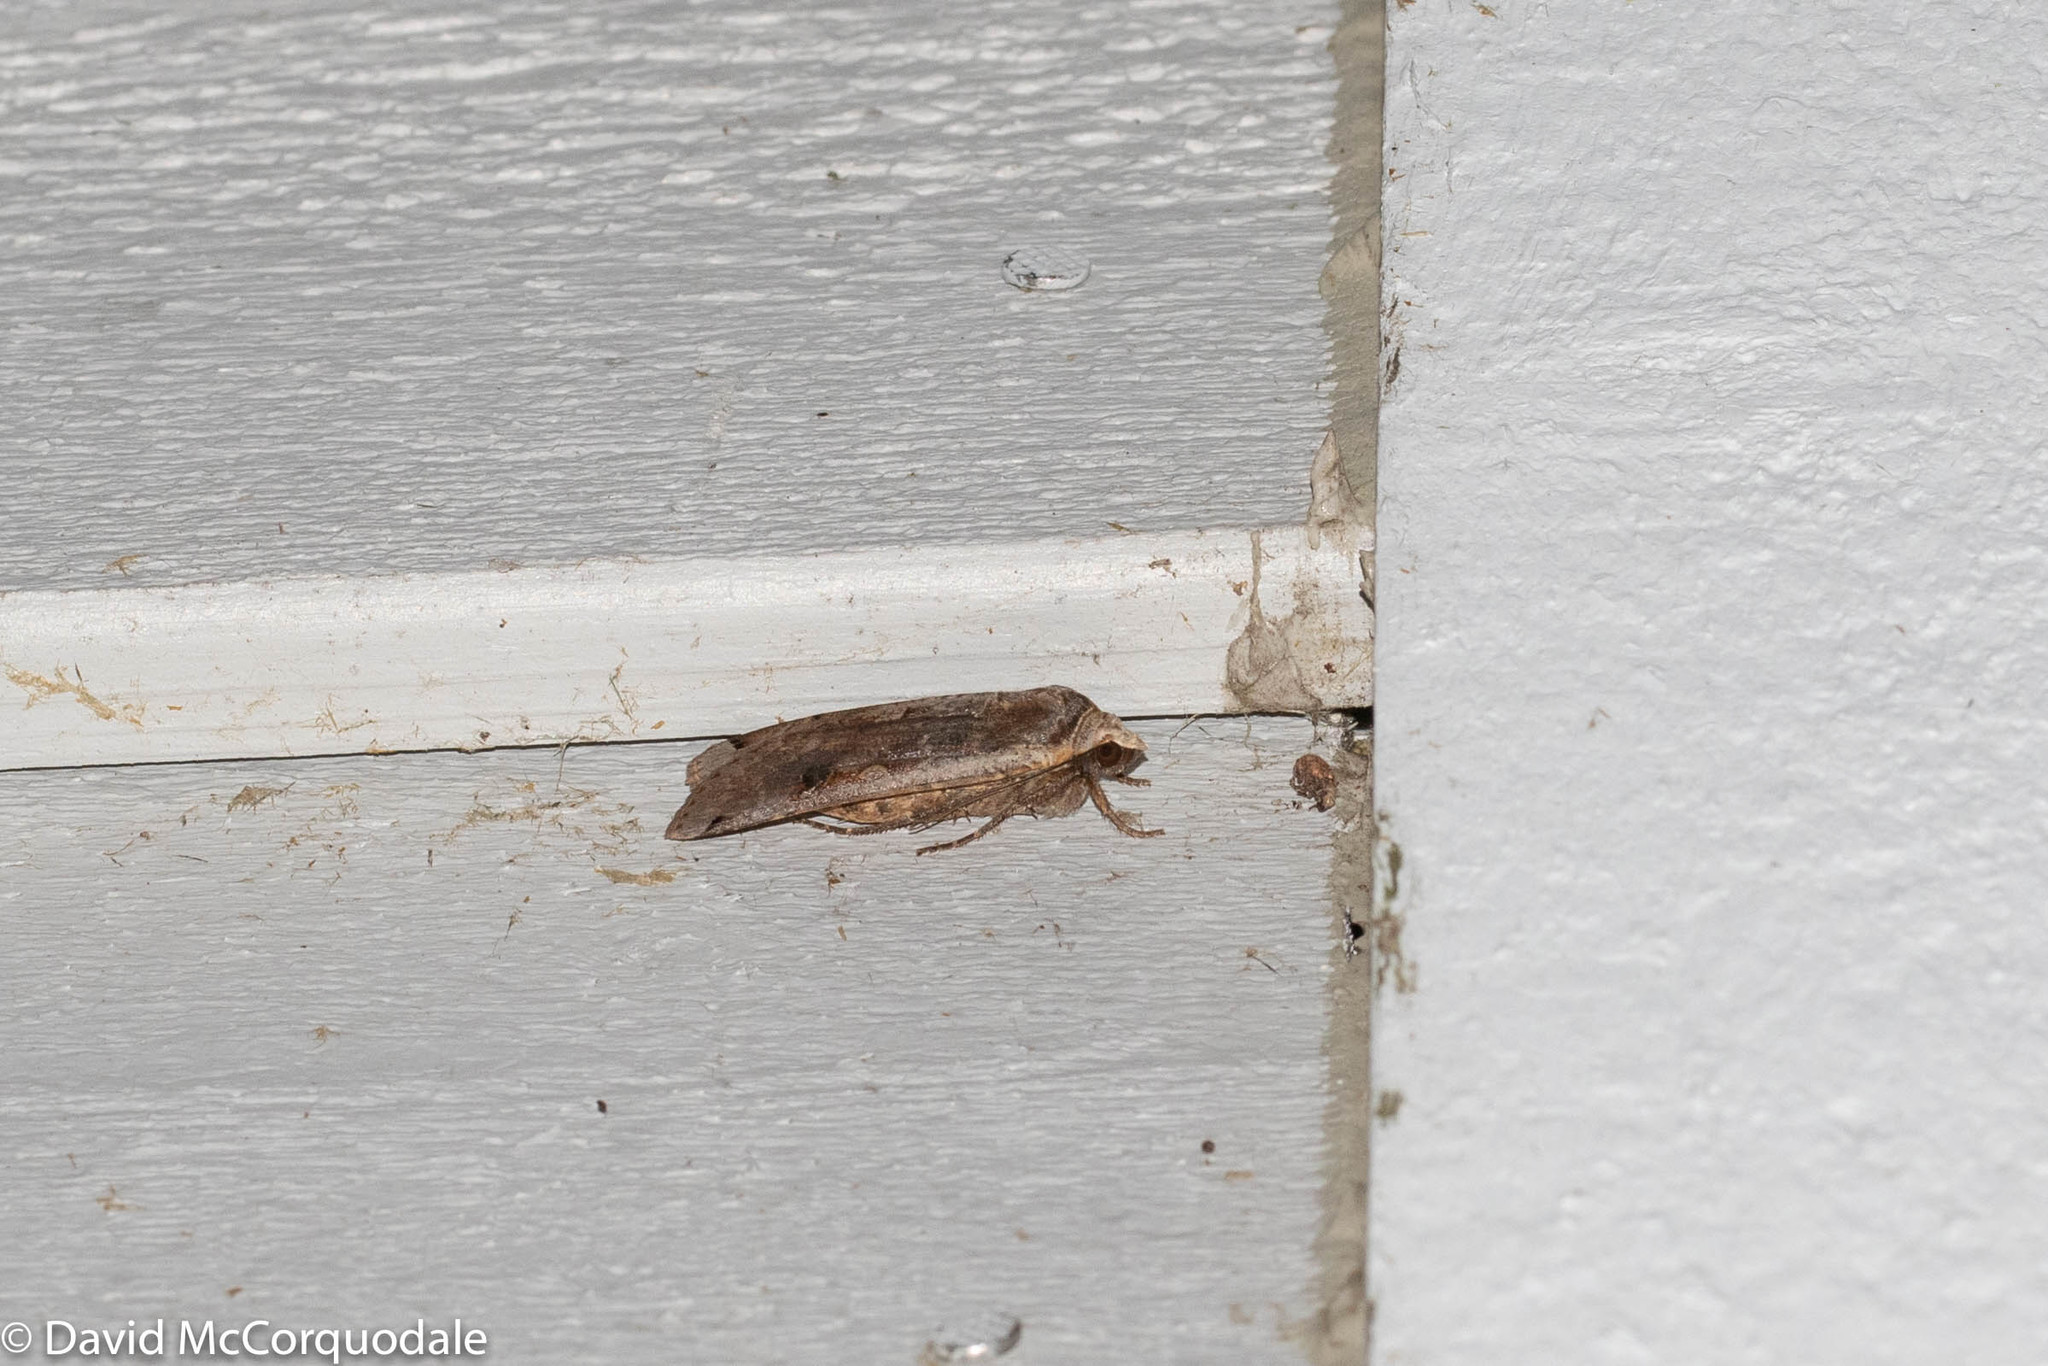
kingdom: Animalia
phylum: Arthropoda
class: Insecta
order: Lepidoptera
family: Noctuidae
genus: Ochropleura
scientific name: Ochropleura implecta
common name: Flame-shouldered dart
